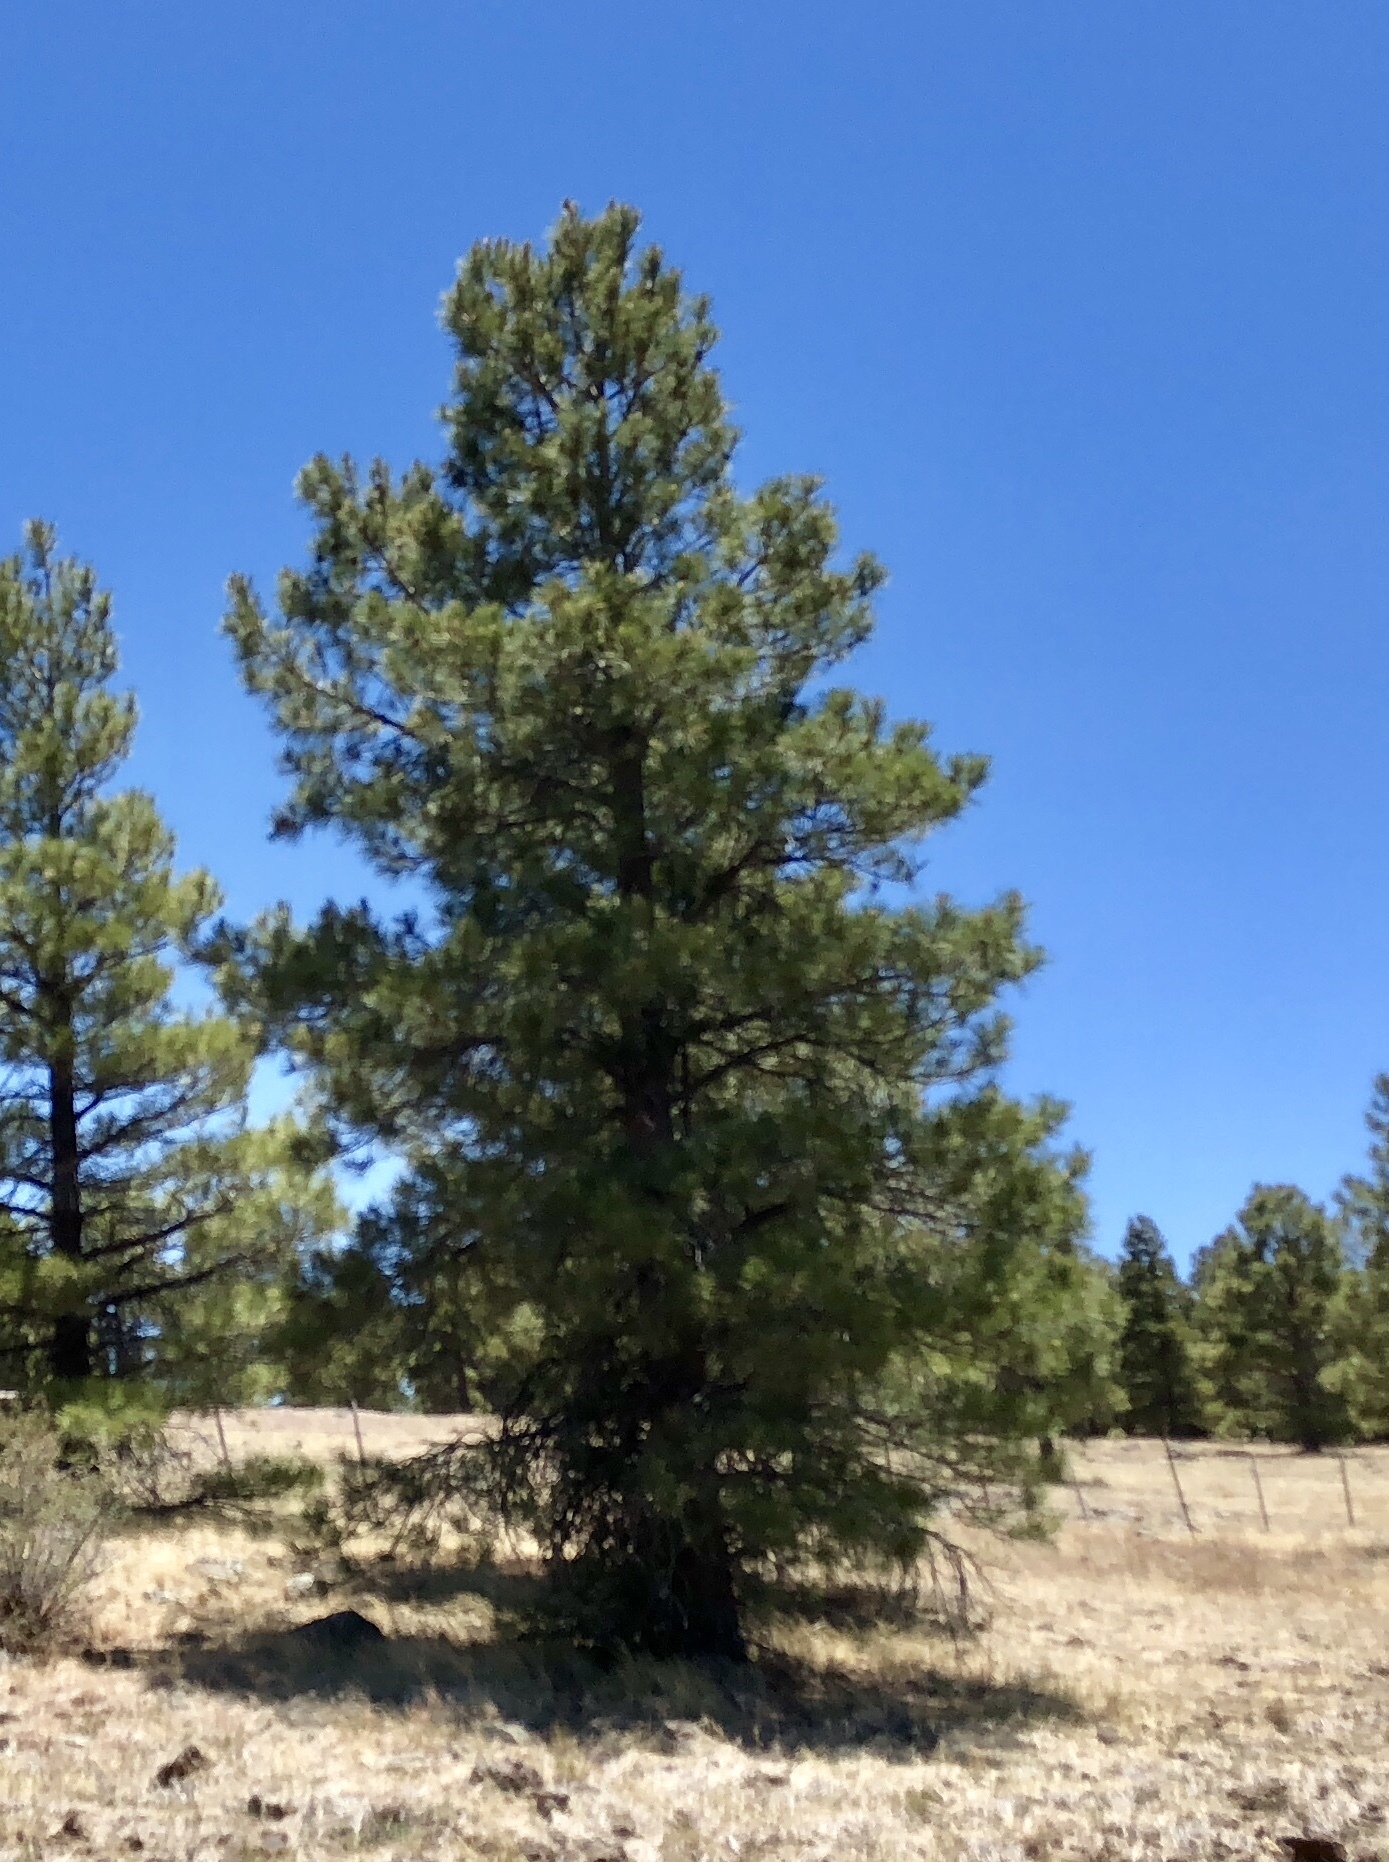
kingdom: Plantae
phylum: Tracheophyta
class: Pinopsida
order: Pinales
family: Pinaceae
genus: Pinus
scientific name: Pinus ponderosa
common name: Western yellow-pine
